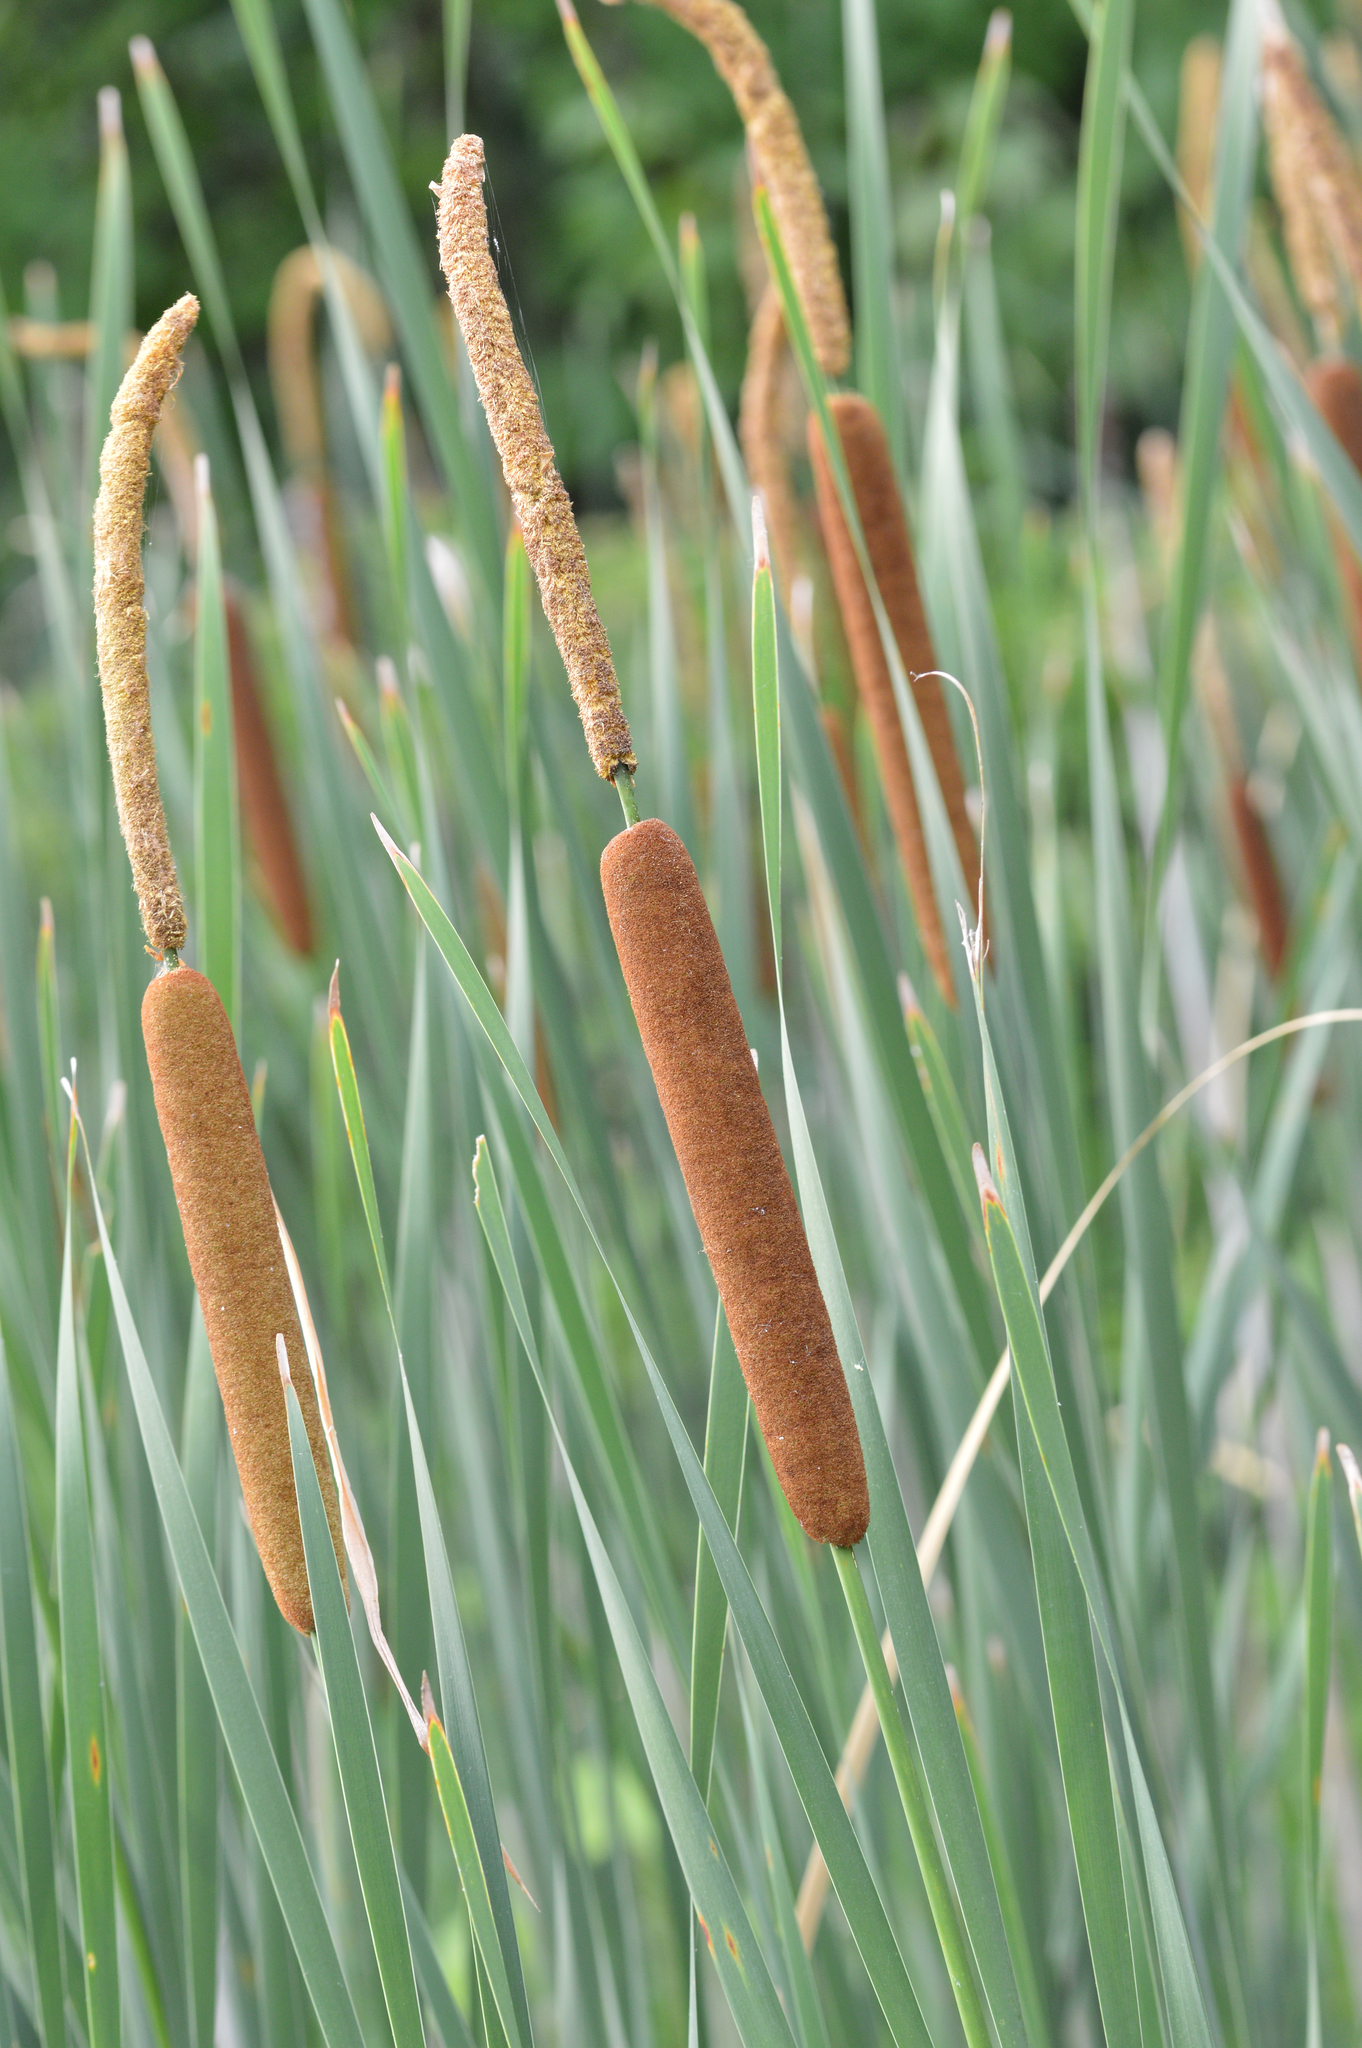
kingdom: Plantae
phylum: Tracheophyta
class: Liliopsida
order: Poales
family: Typhaceae
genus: Typha
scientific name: Typha glauca
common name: Blue cattail
